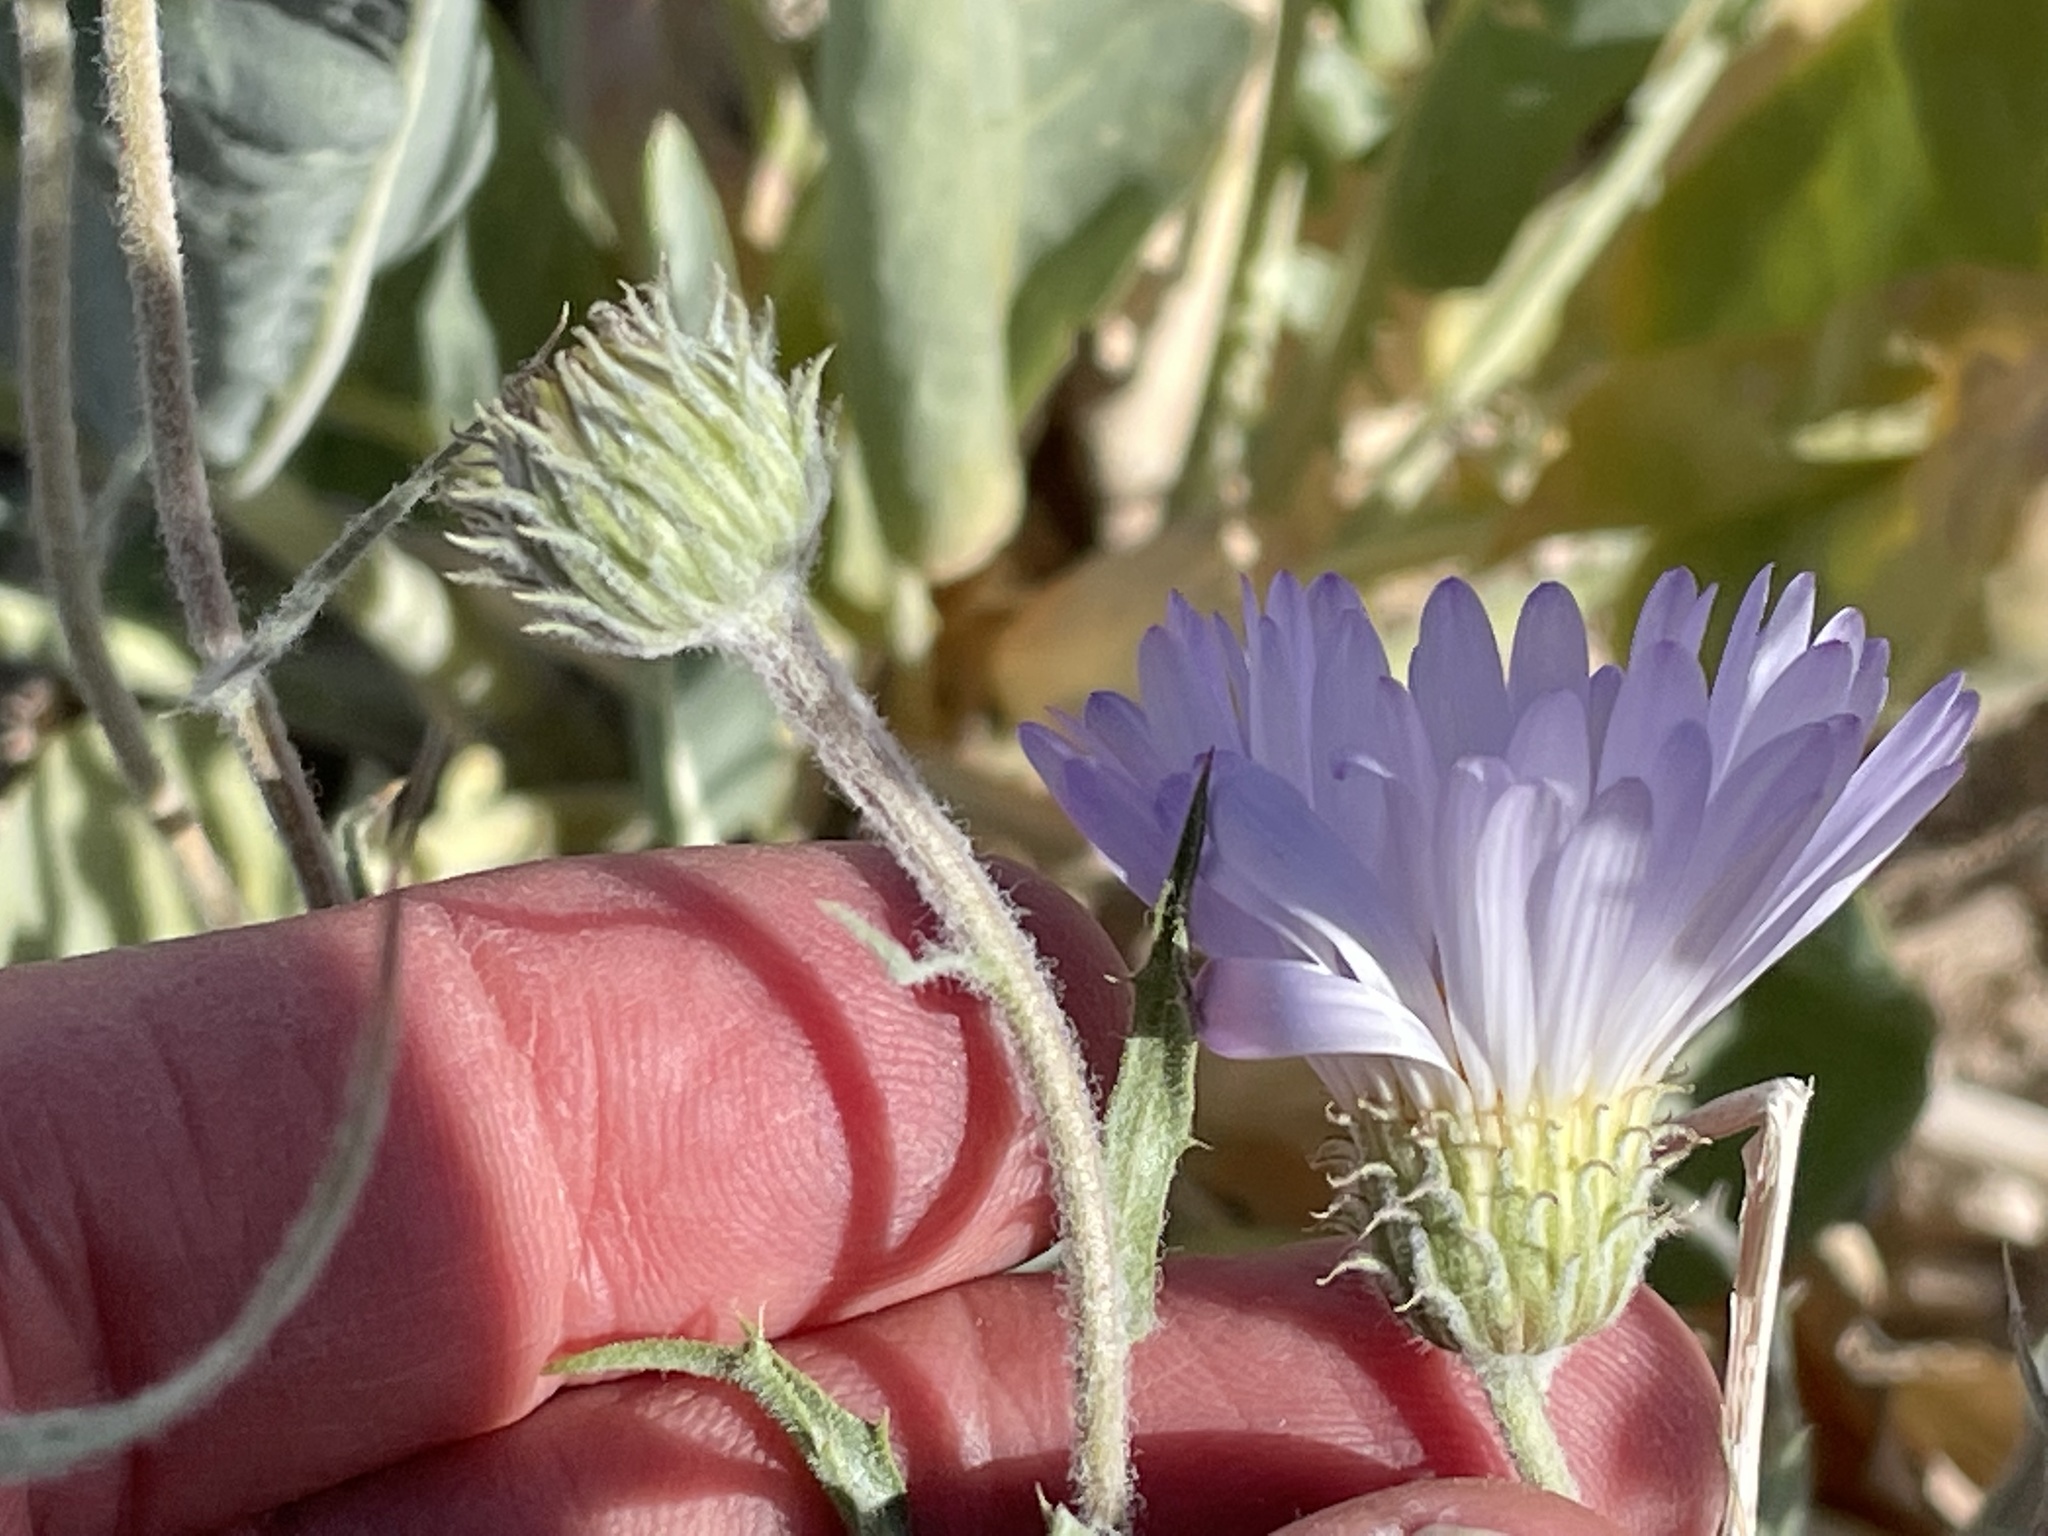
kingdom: Plantae
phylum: Tracheophyta
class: Magnoliopsida
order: Asterales
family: Asteraceae
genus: Xylorhiza
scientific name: Xylorhiza tortifolia
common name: Hurt-leaf woody-aster
